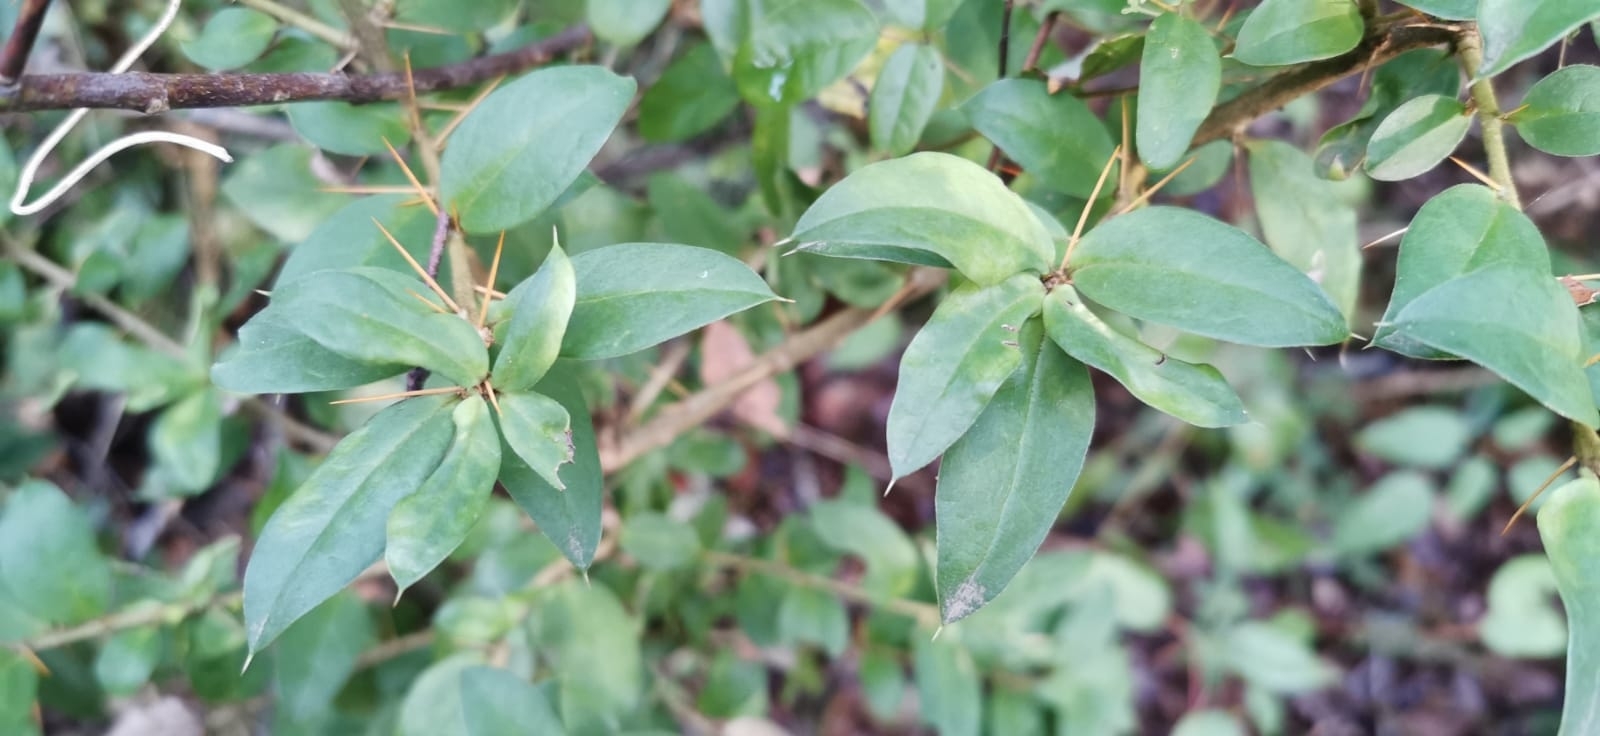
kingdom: Plantae
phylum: Tracheophyta
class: Magnoliopsida
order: Asterales
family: Asteraceae
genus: Archidasyphyllum
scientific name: Archidasyphyllum diacanthoides
